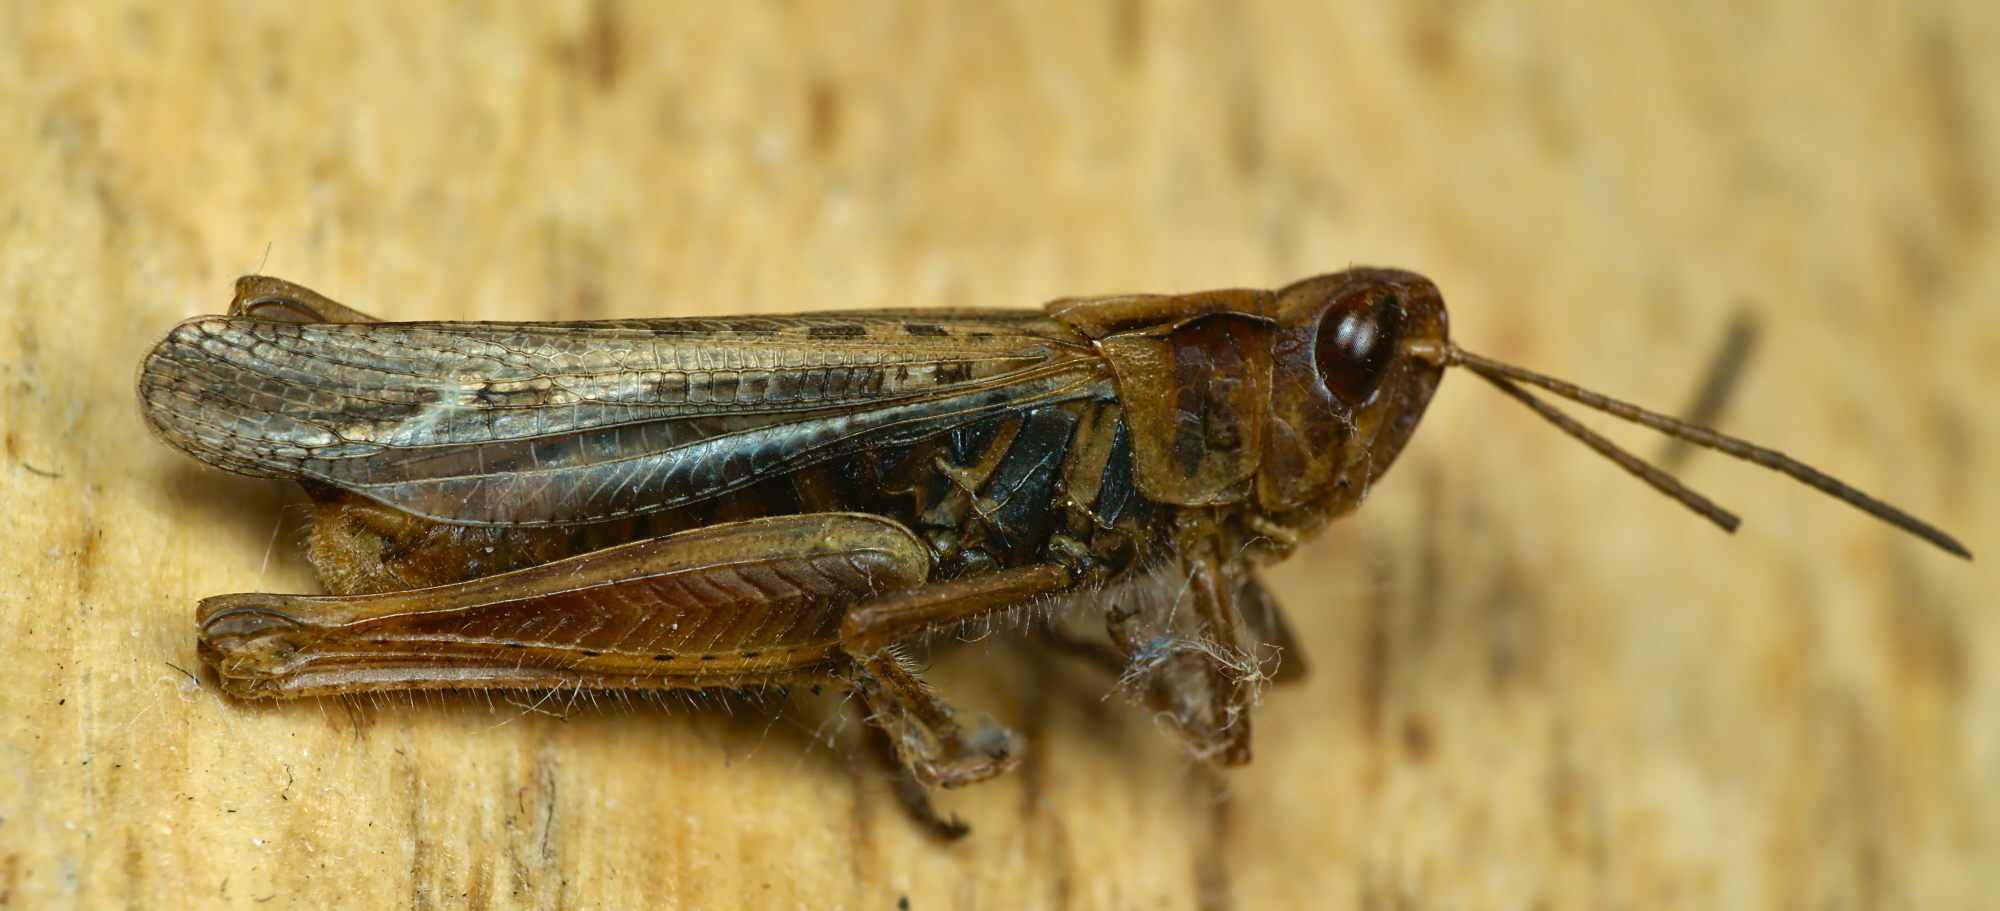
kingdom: Animalia
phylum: Arthropoda
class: Insecta
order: Orthoptera
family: Acrididae
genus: Chorthippus
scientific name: Chorthippus biguttulus
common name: Bow-winged grasshopper
